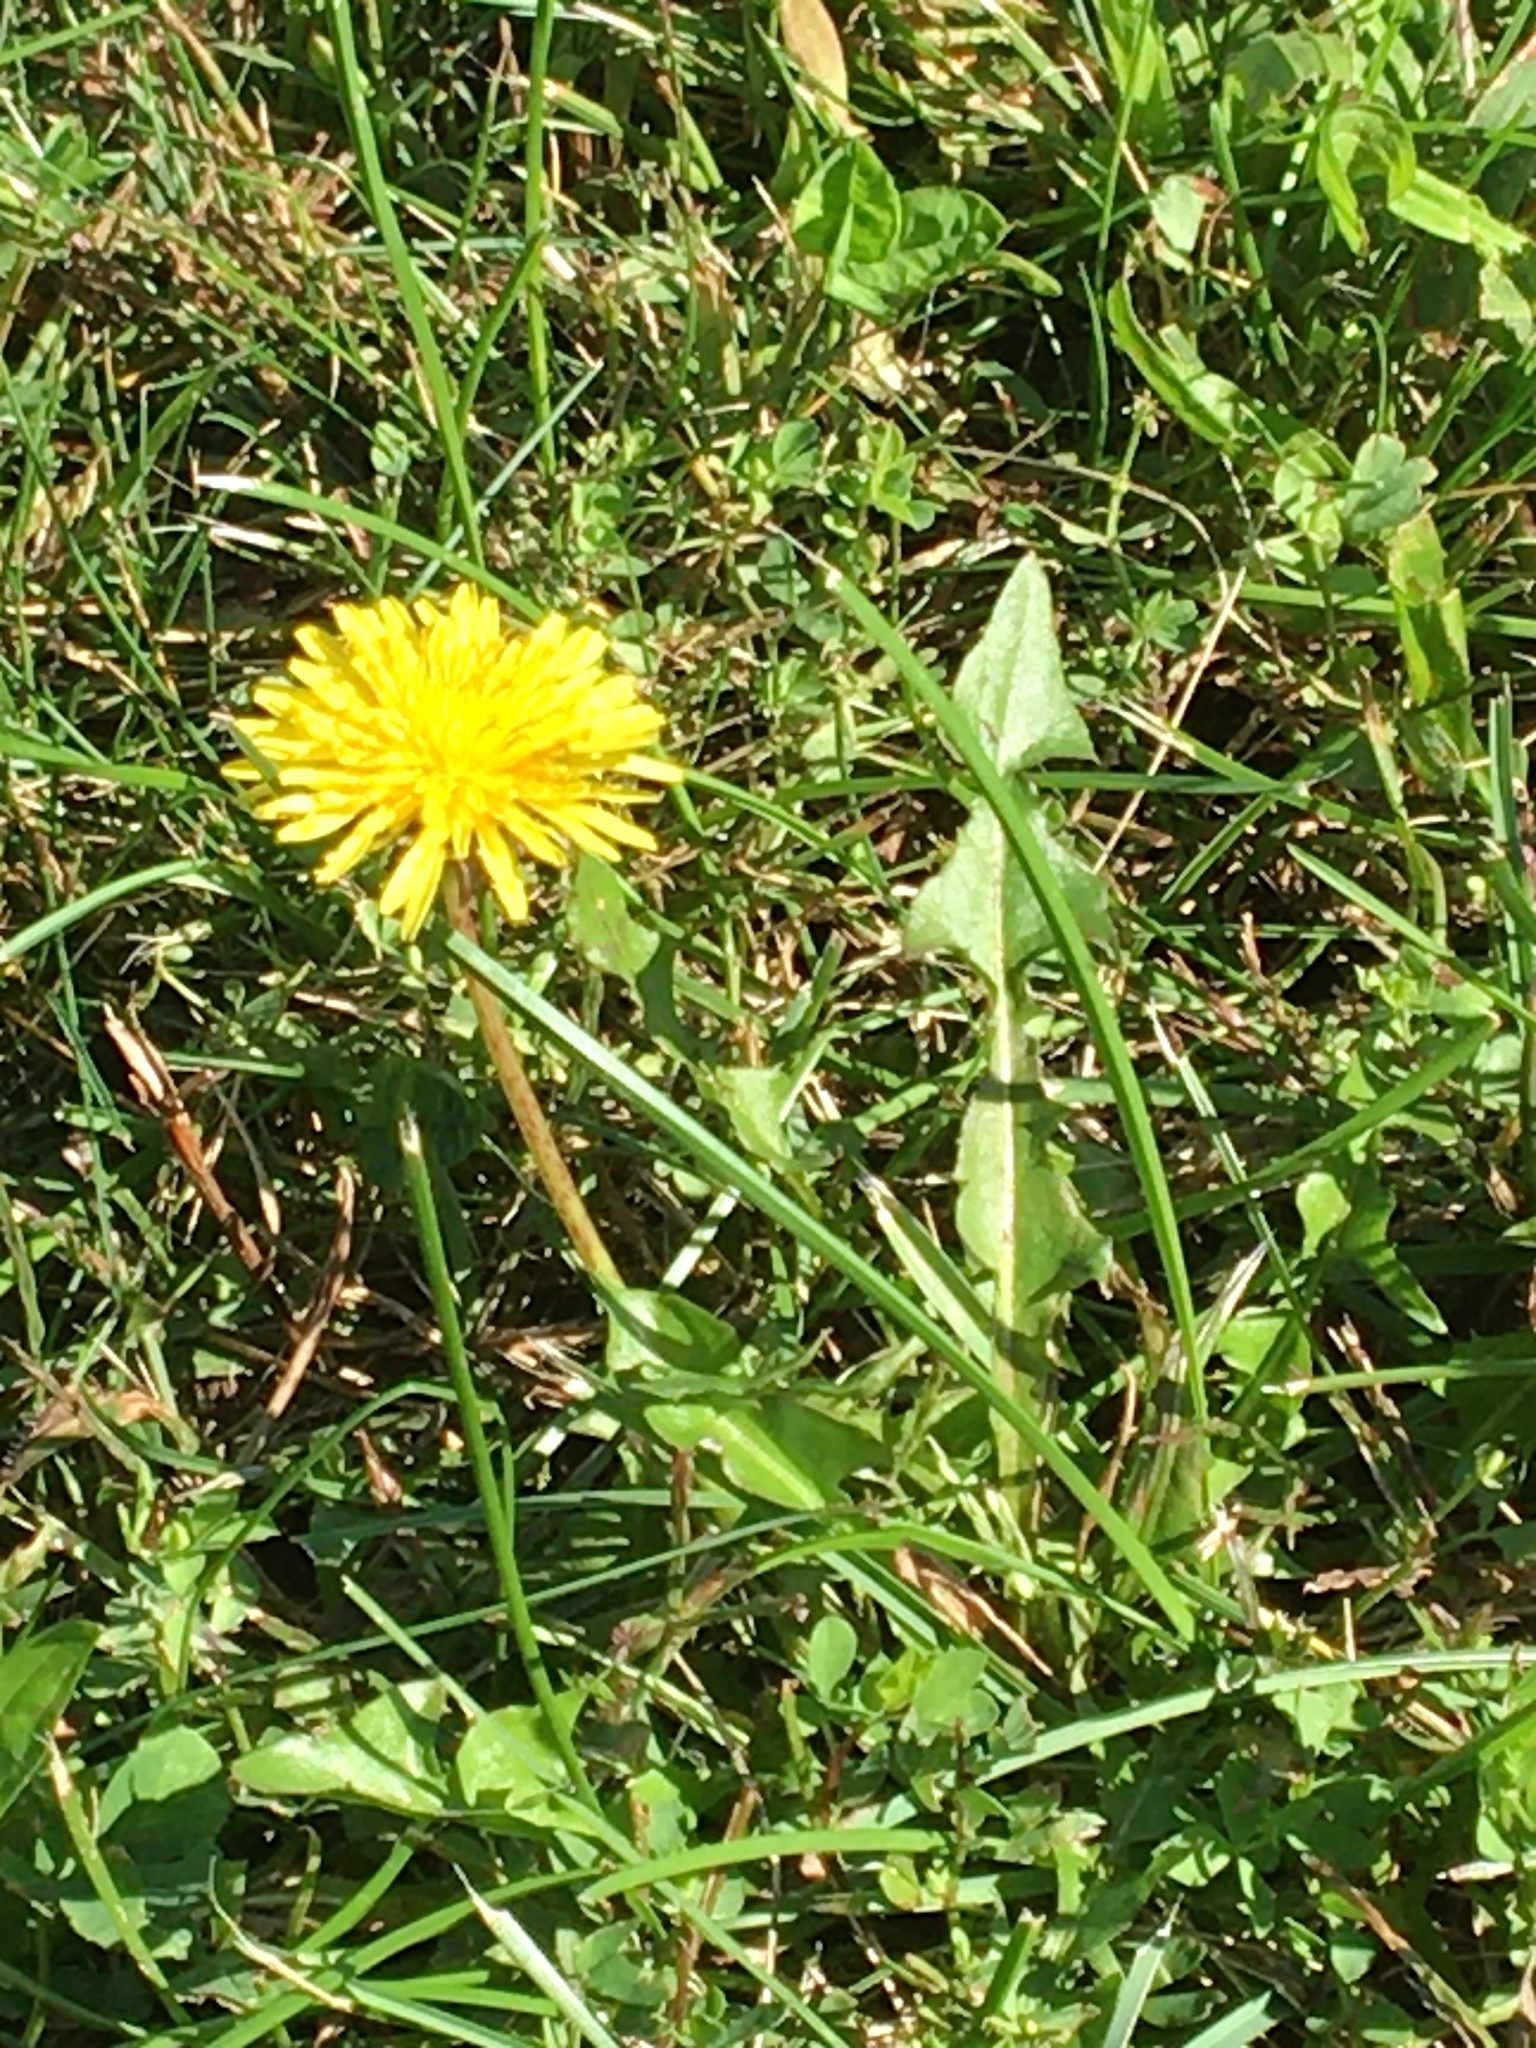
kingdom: Plantae
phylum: Tracheophyta
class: Magnoliopsida
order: Asterales
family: Asteraceae
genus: Taraxacum
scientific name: Taraxacum
